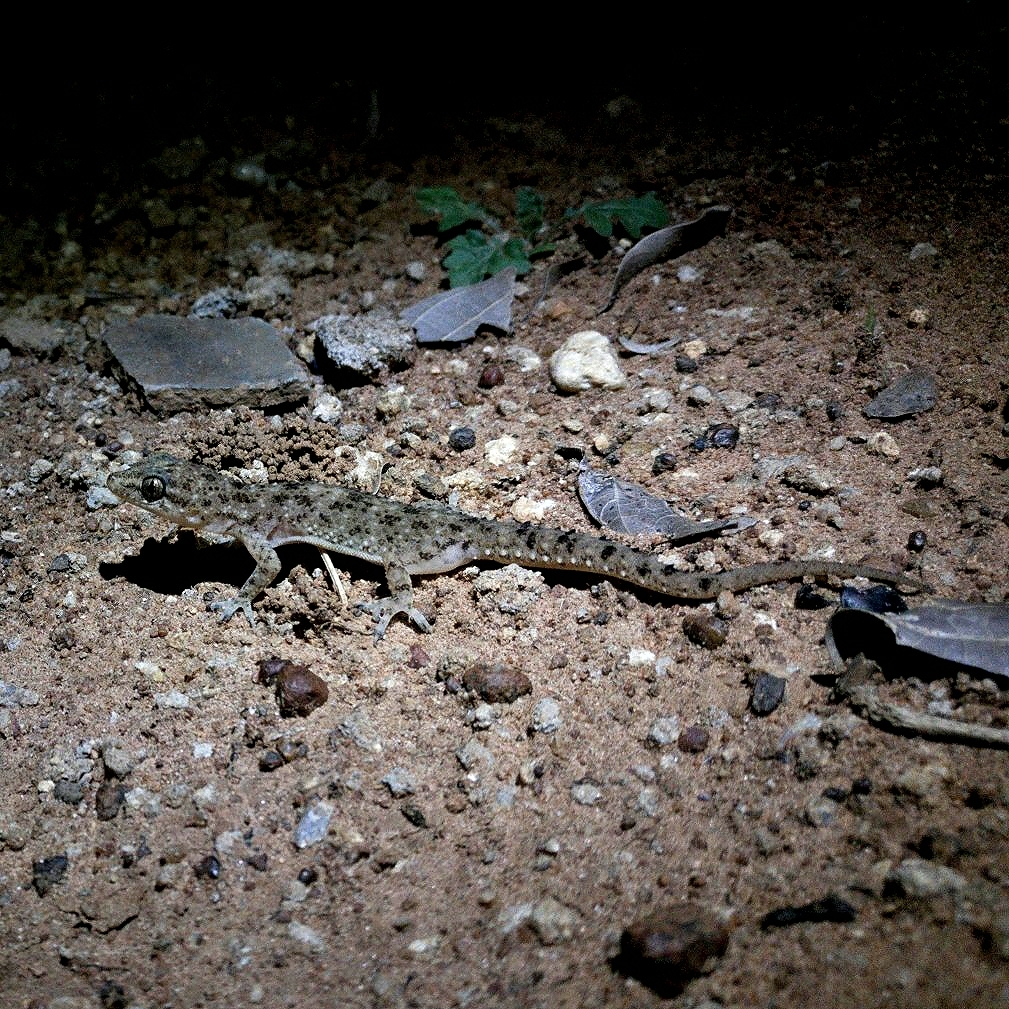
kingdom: Animalia
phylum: Chordata
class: Squamata
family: Gekkonidae
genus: Hemidactylus
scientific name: Hemidactylus parvimaculatus
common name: Spotted house gecko
